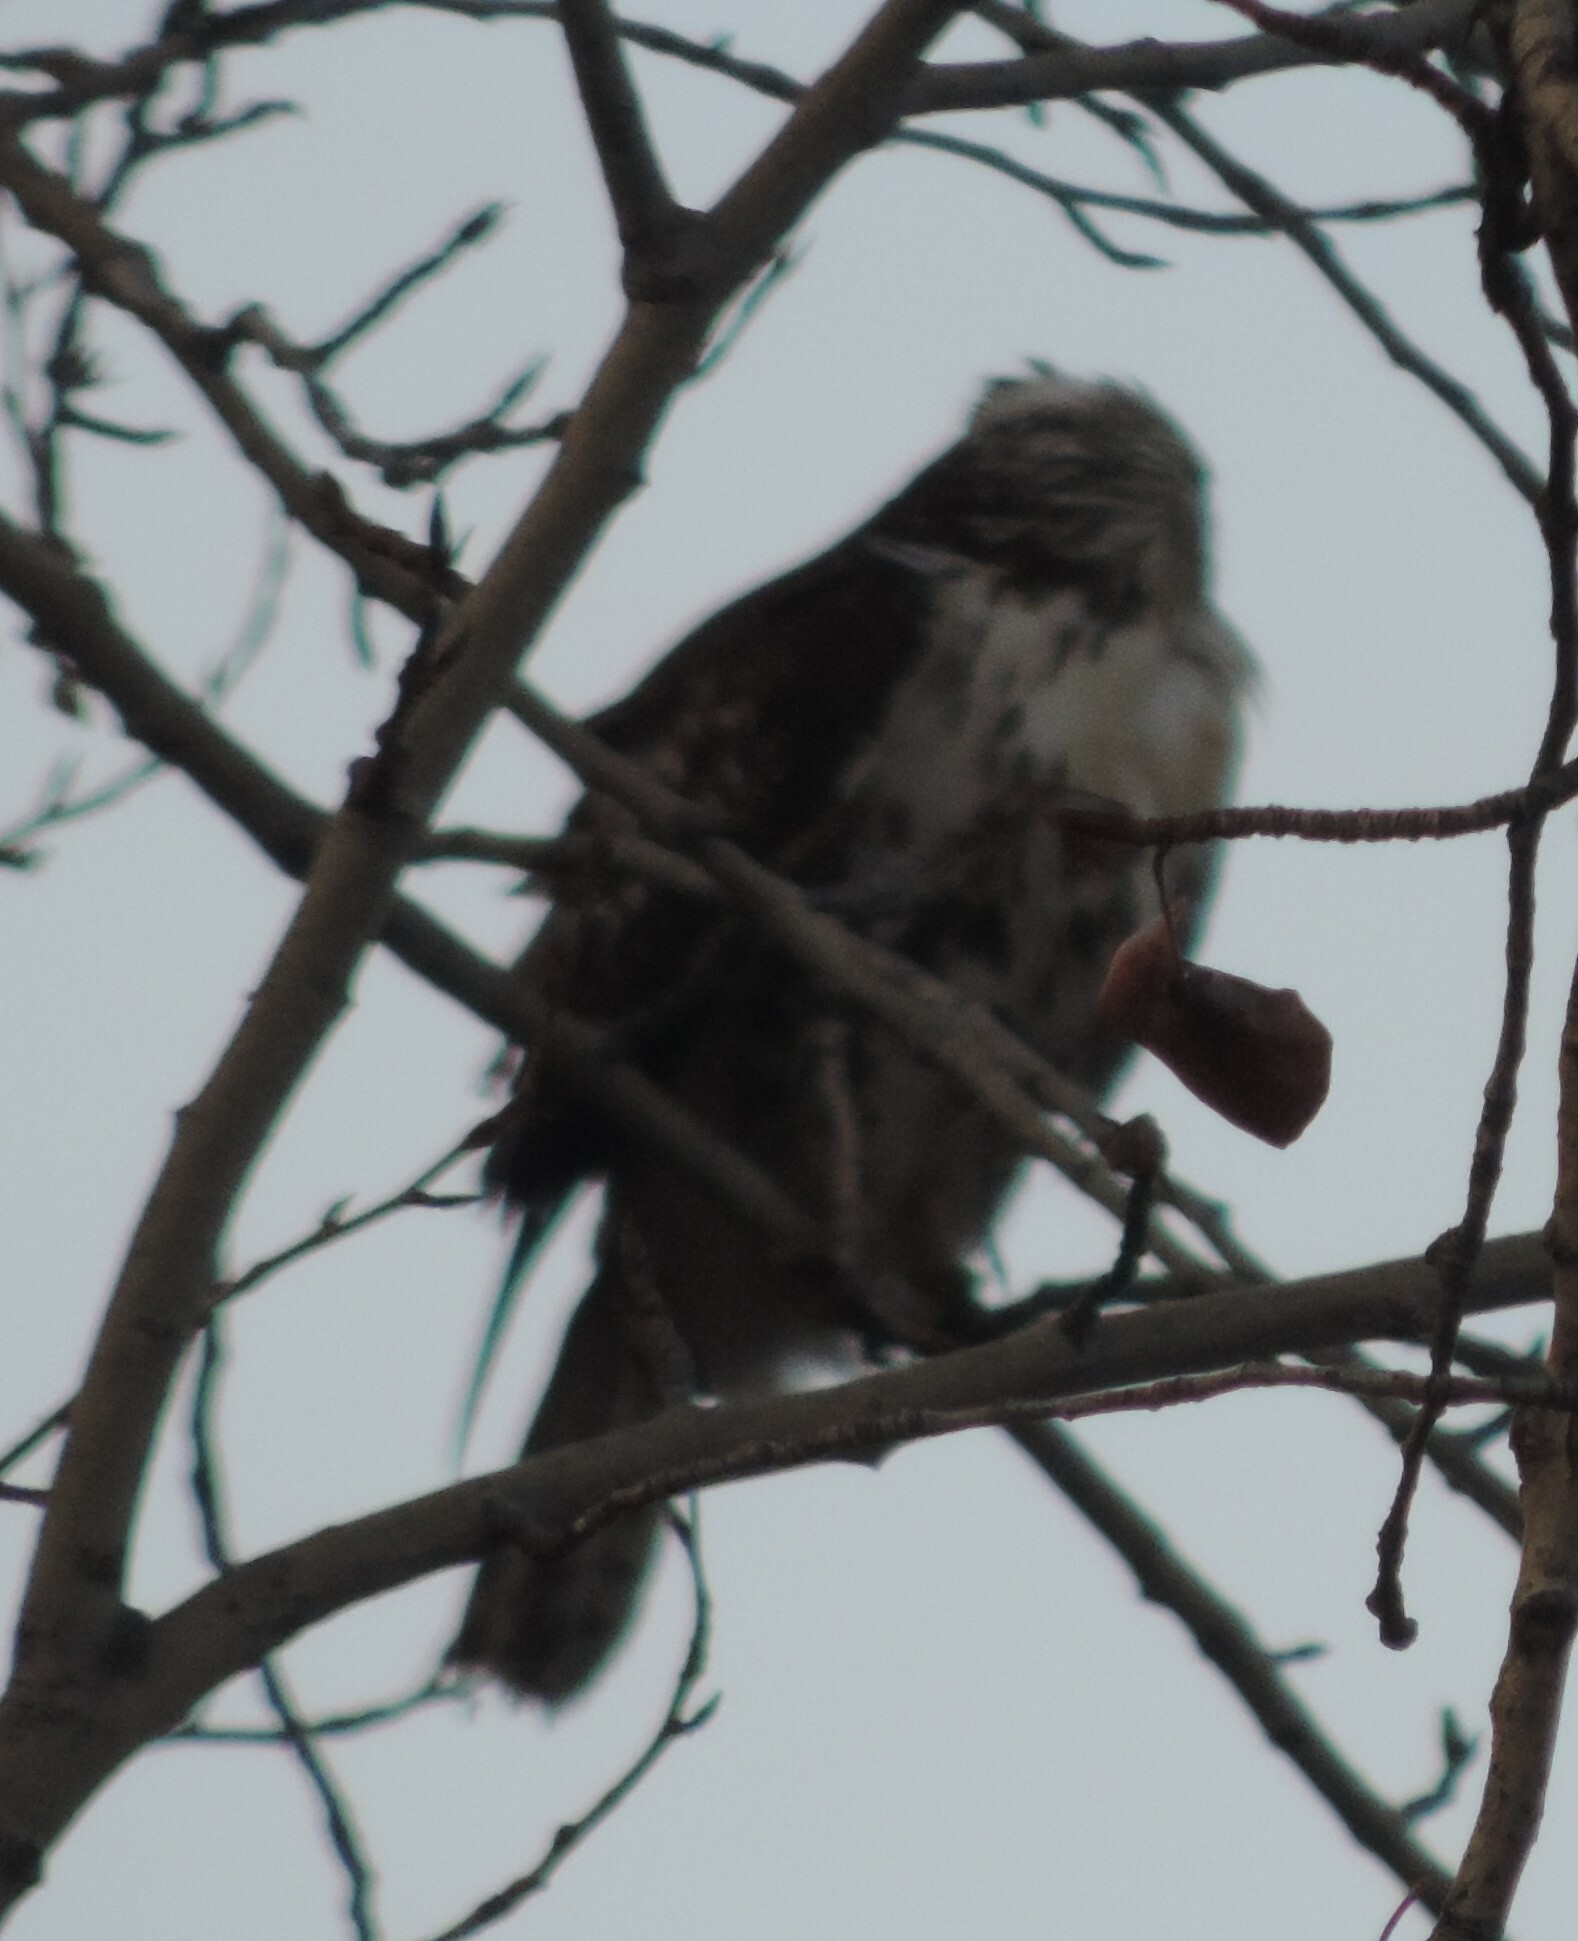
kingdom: Animalia
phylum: Chordata
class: Aves
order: Accipitriformes
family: Accipitridae
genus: Buteo
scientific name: Buteo jamaicensis
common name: Red-tailed hawk
